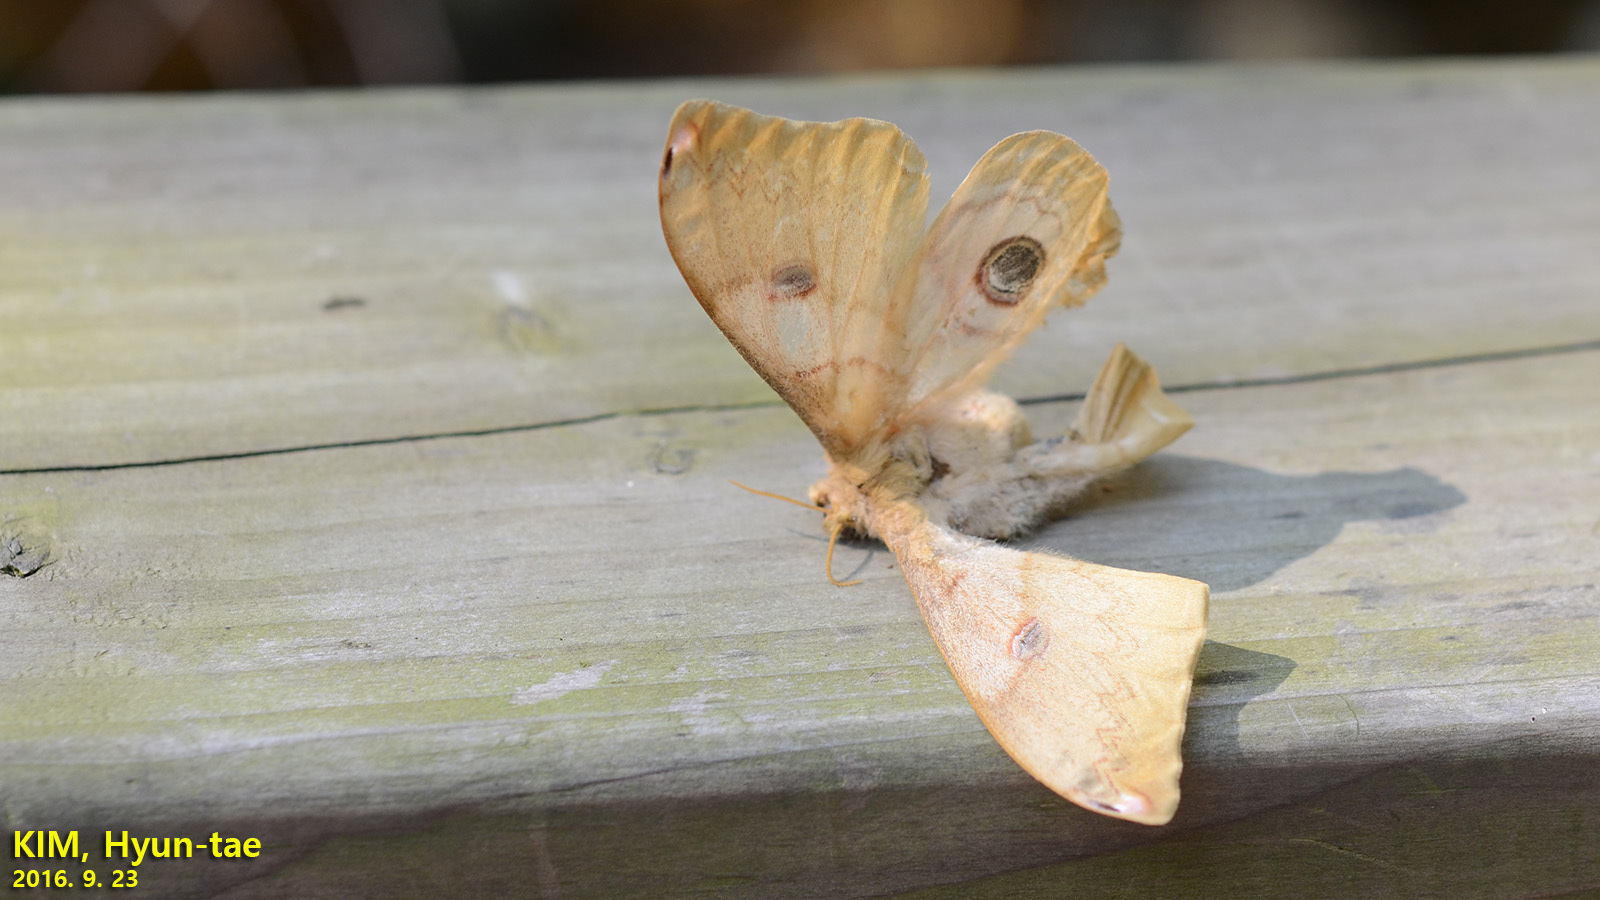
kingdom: Animalia
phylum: Arthropoda
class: Insecta
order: Lepidoptera
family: Saturniidae
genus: Saturnia
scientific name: Saturnia japonica
